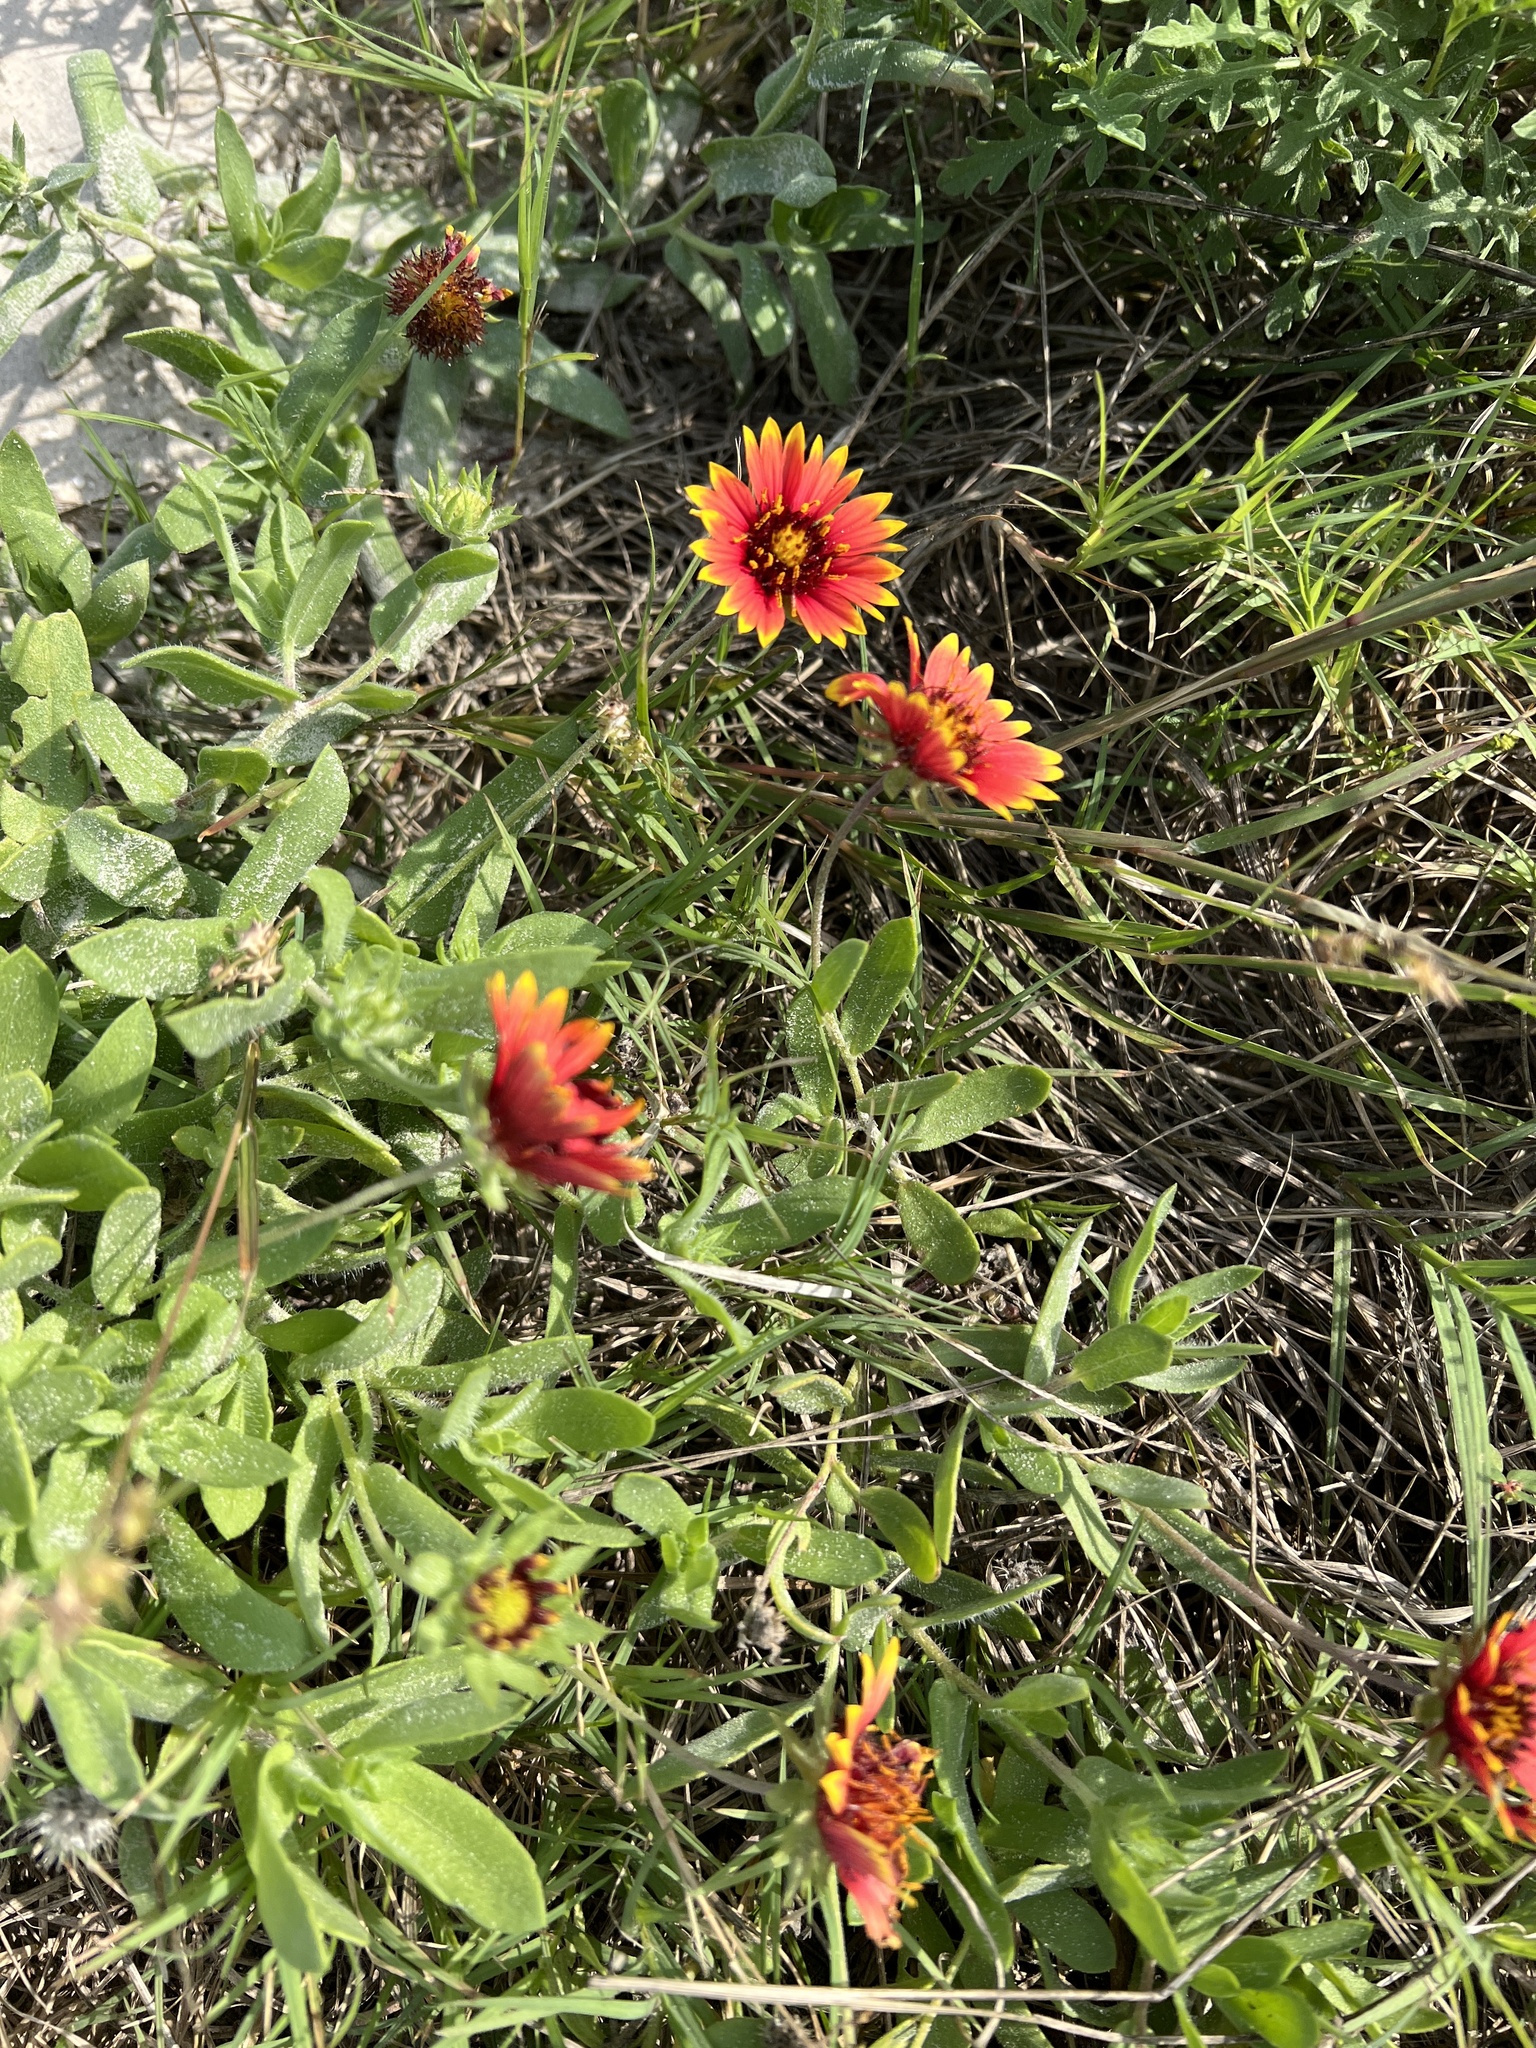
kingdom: Plantae
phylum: Tracheophyta
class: Magnoliopsida
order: Asterales
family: Asteraceae
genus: Gaillardia
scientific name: Gaillardia pulchella
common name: Firewheel
